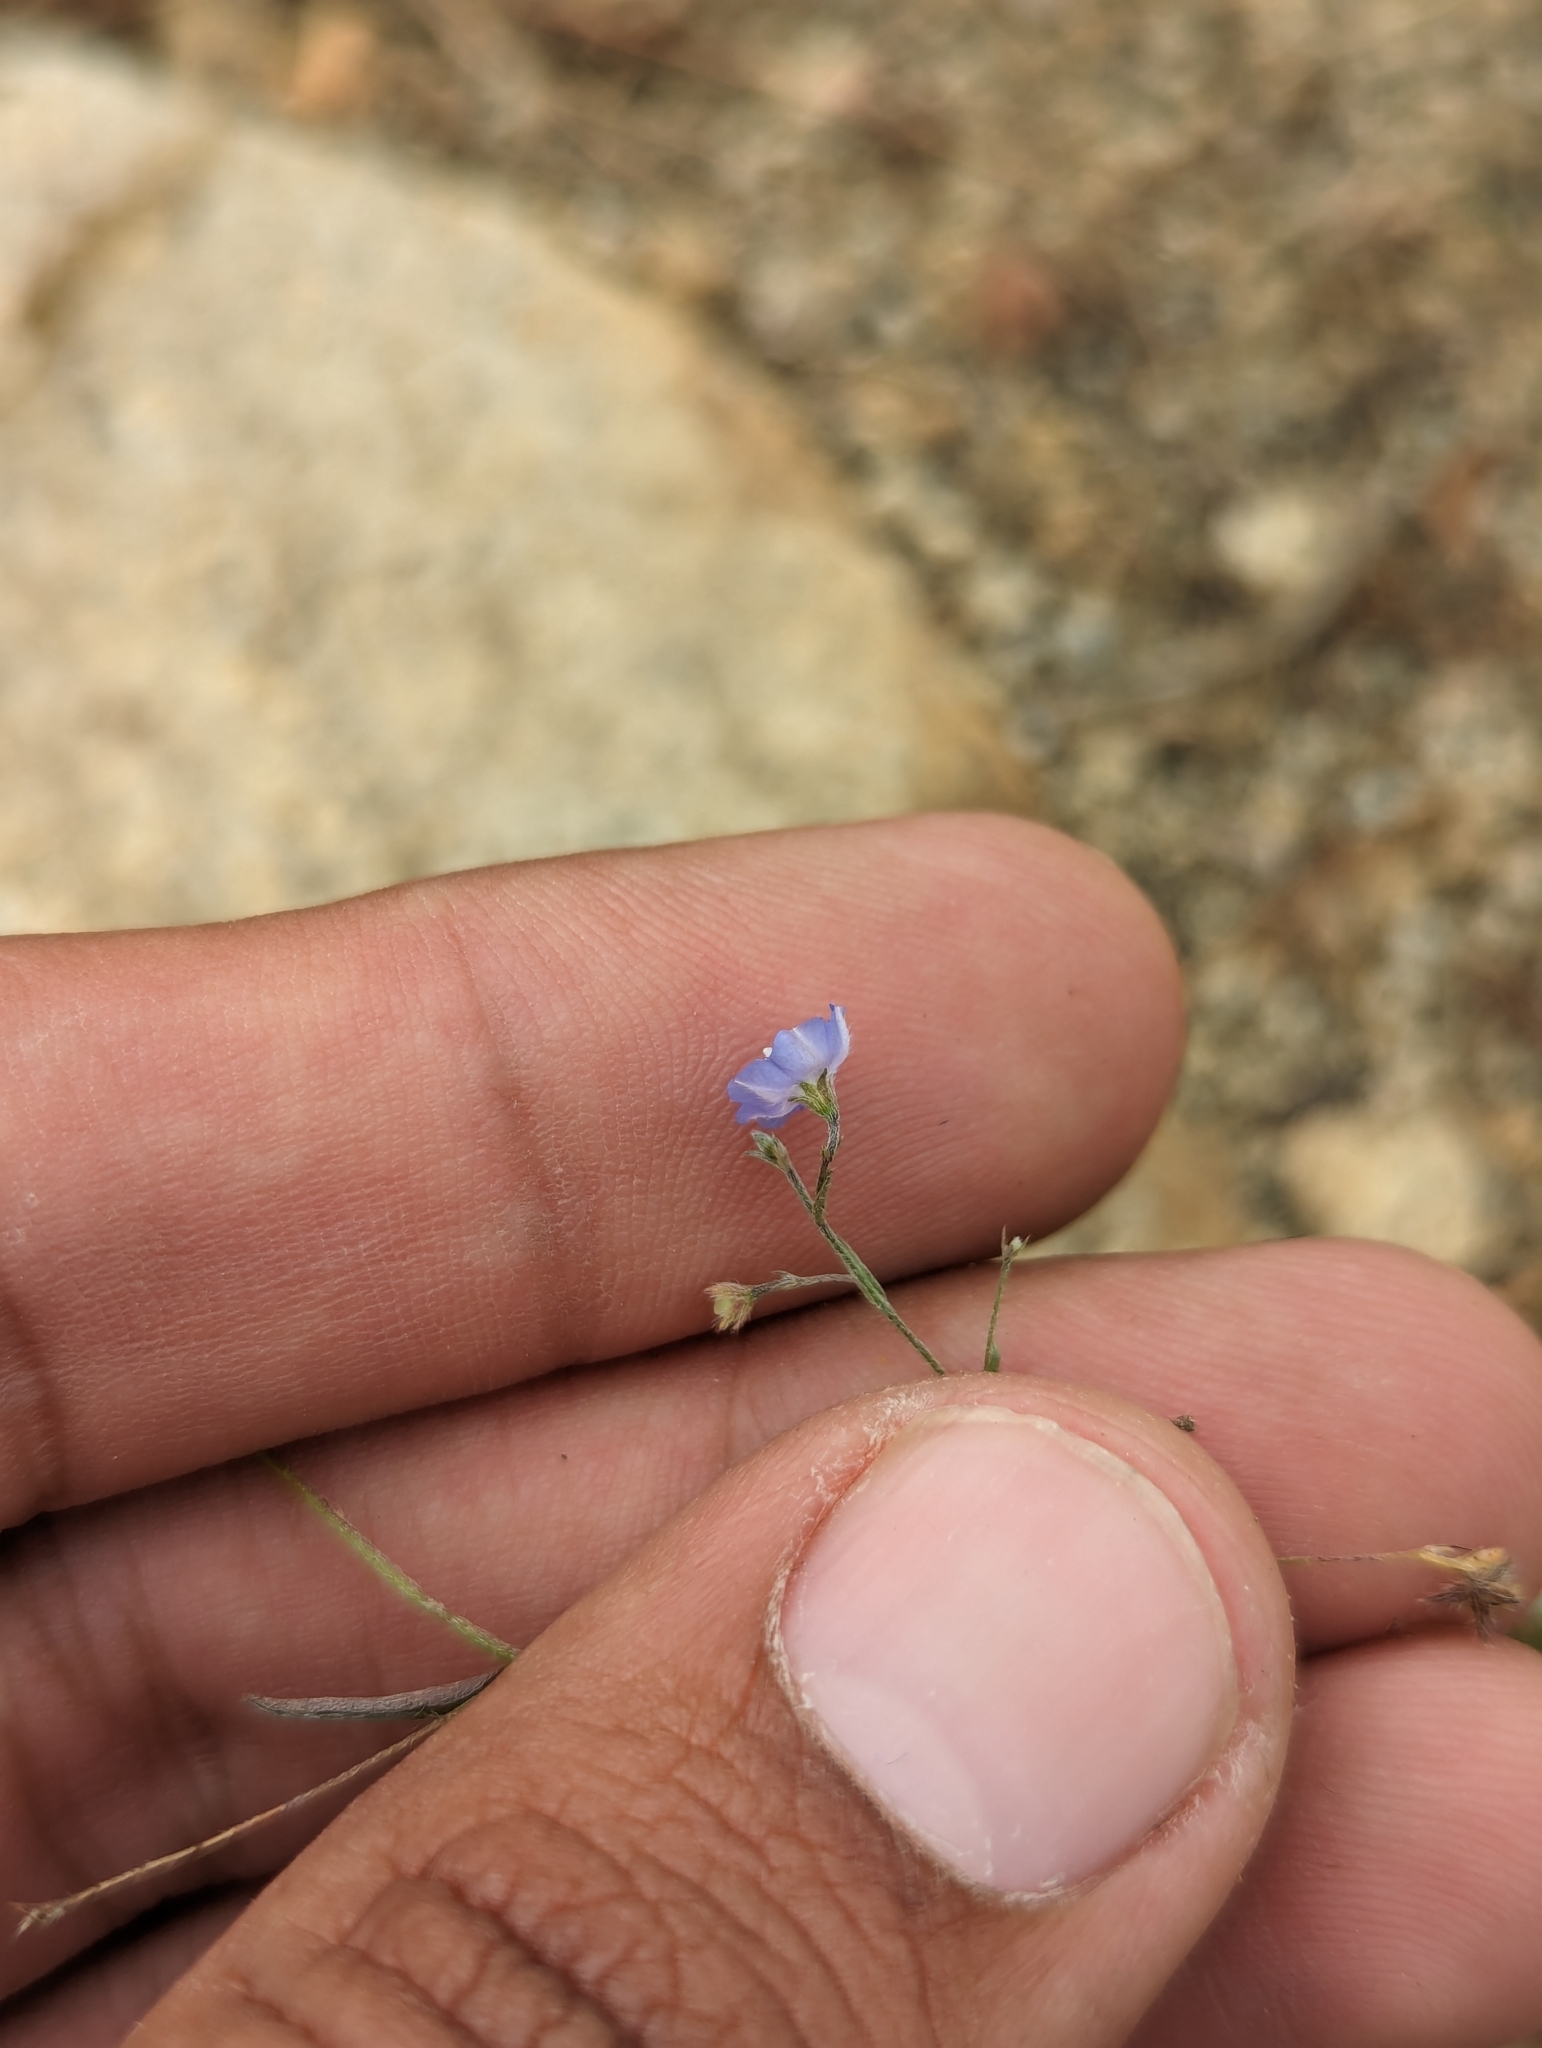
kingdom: Plantae
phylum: Tracheophyta
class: Magnoliopsida
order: Solanales
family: Convolvulaceae
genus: Evolvulus
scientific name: Evolvulus alsinoides
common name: Slender dwarf morning-glory
